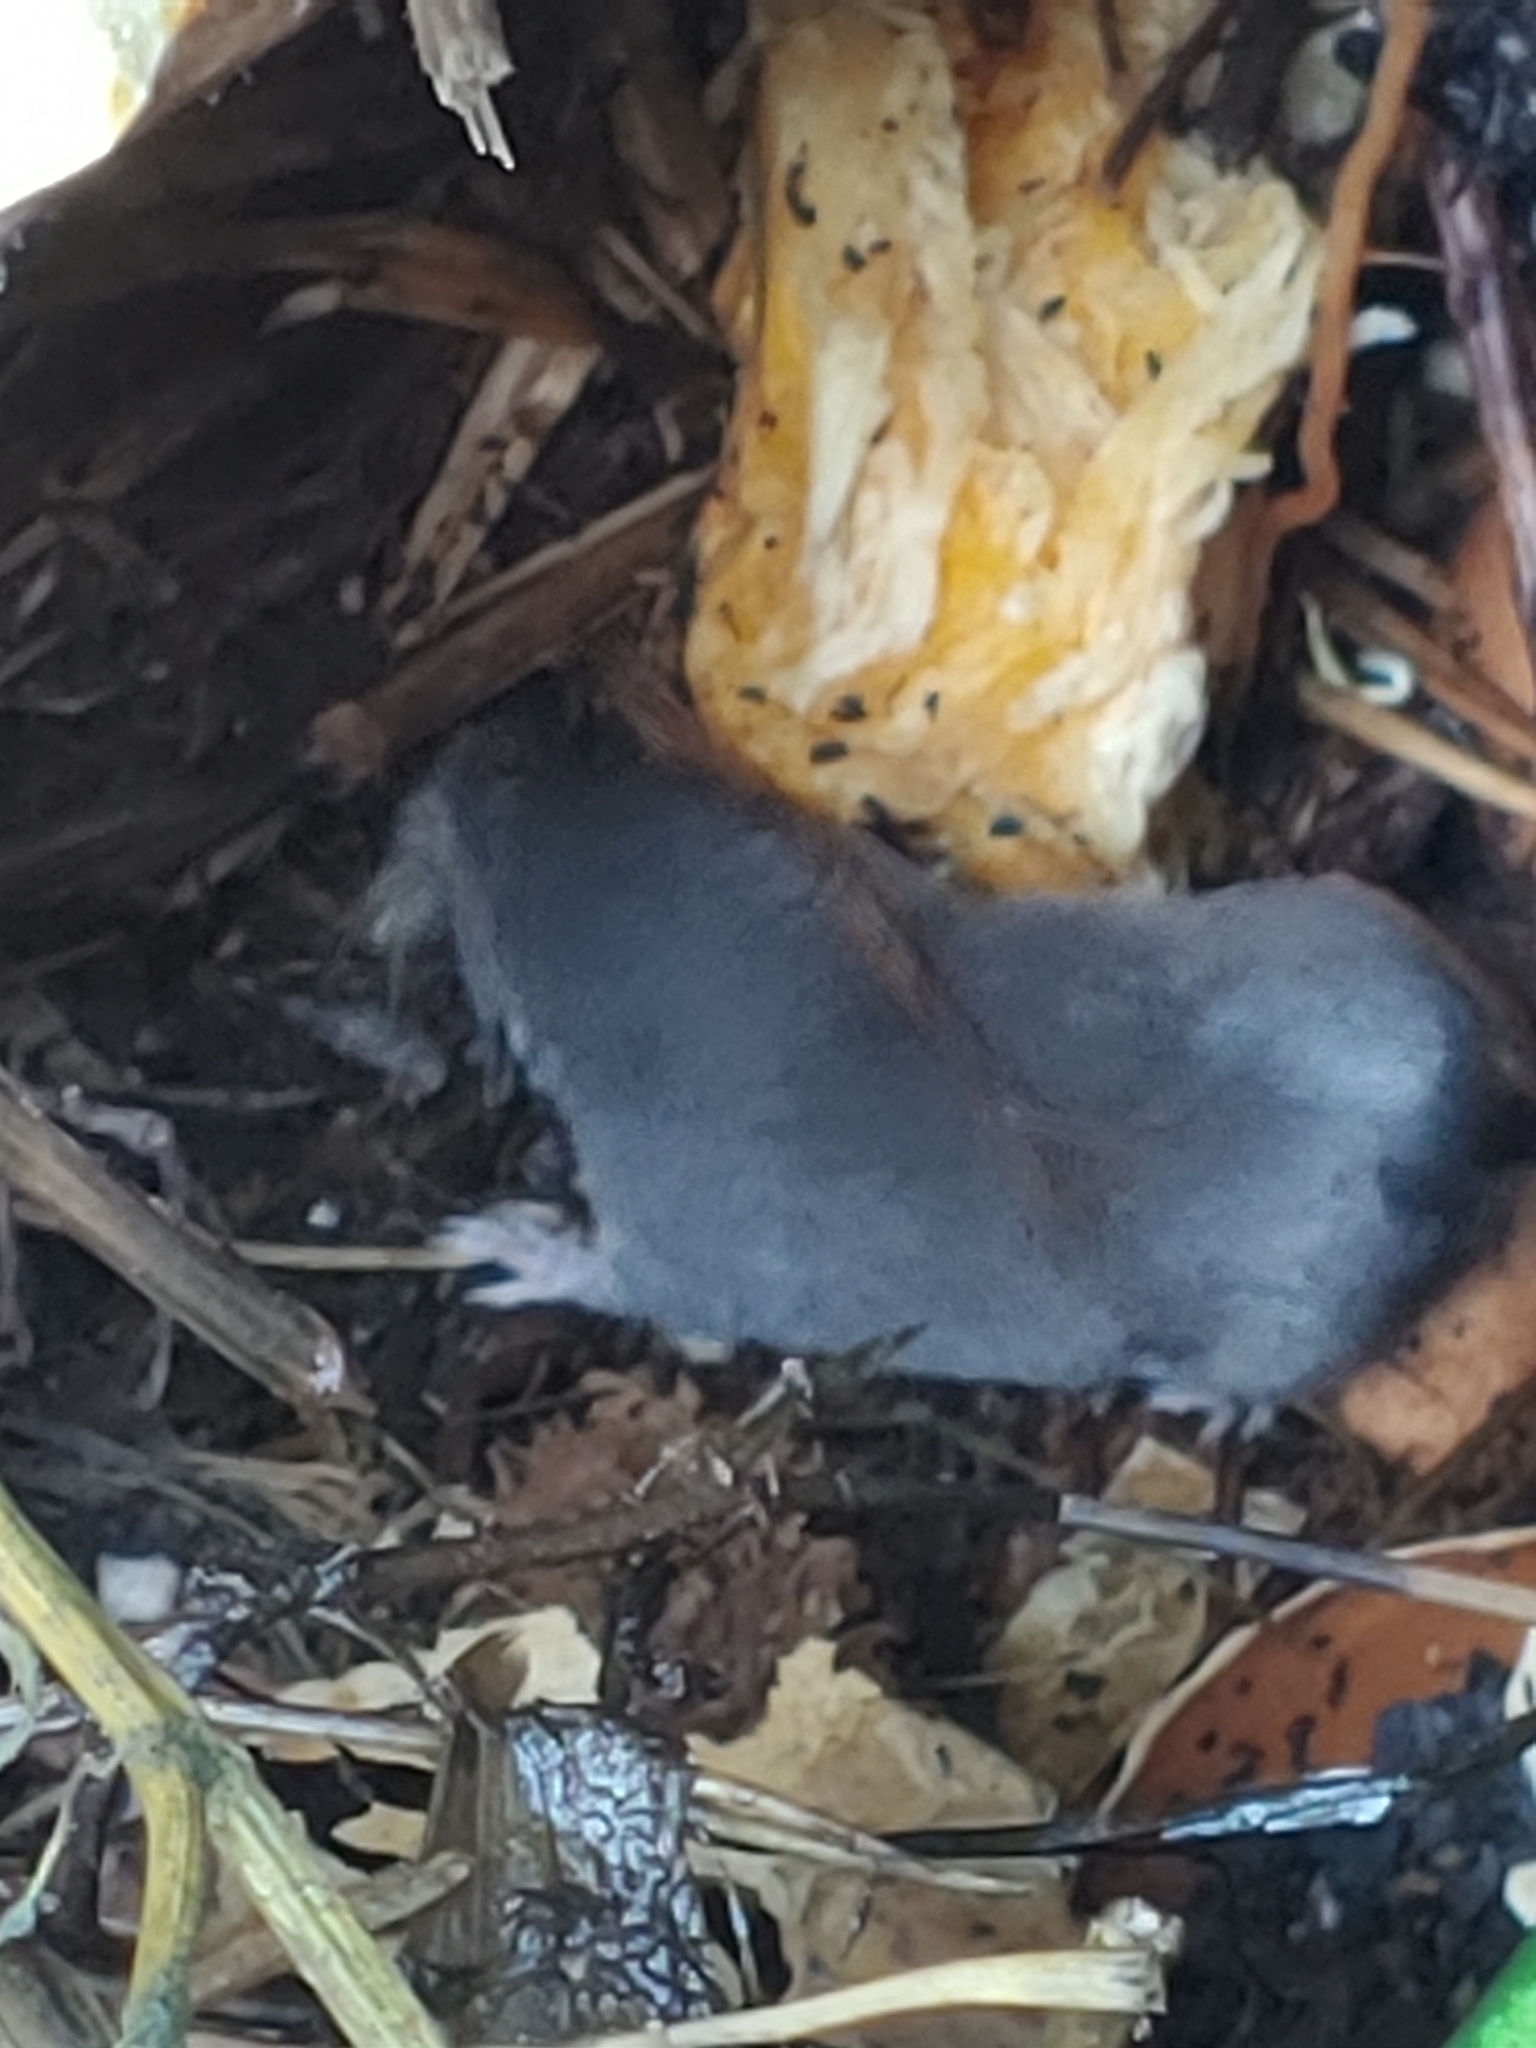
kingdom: Animalia
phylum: Chordata
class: Mammalia
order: Soricomorpha
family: Soricidae
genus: Blarina
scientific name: Blarina brevicauda
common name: Northern short-tailed shrew
